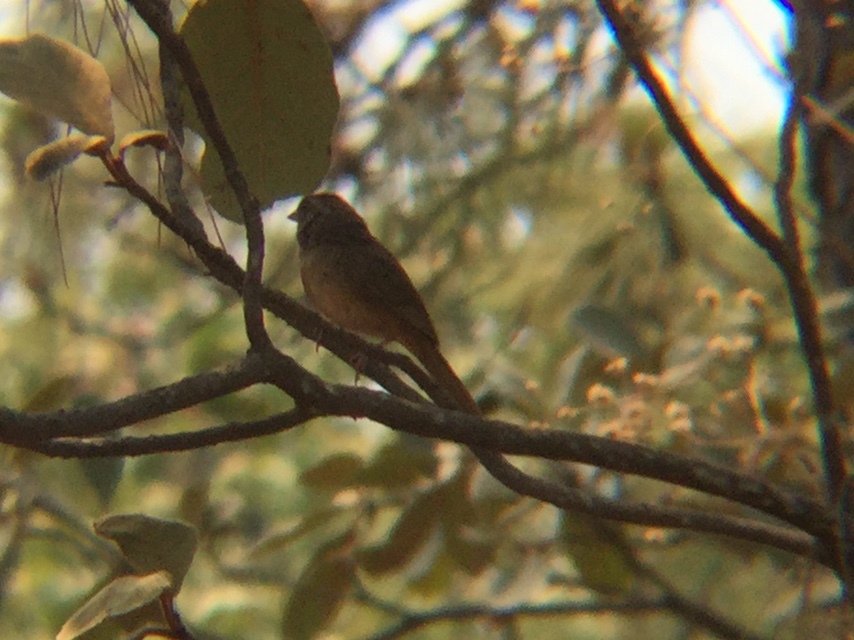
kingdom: Animalia
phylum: Chordata
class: Aves
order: Passeriformes
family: Passerellidae
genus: Aimophila
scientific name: Aimophila ruficeps
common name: Rufous-crowned sparrow
